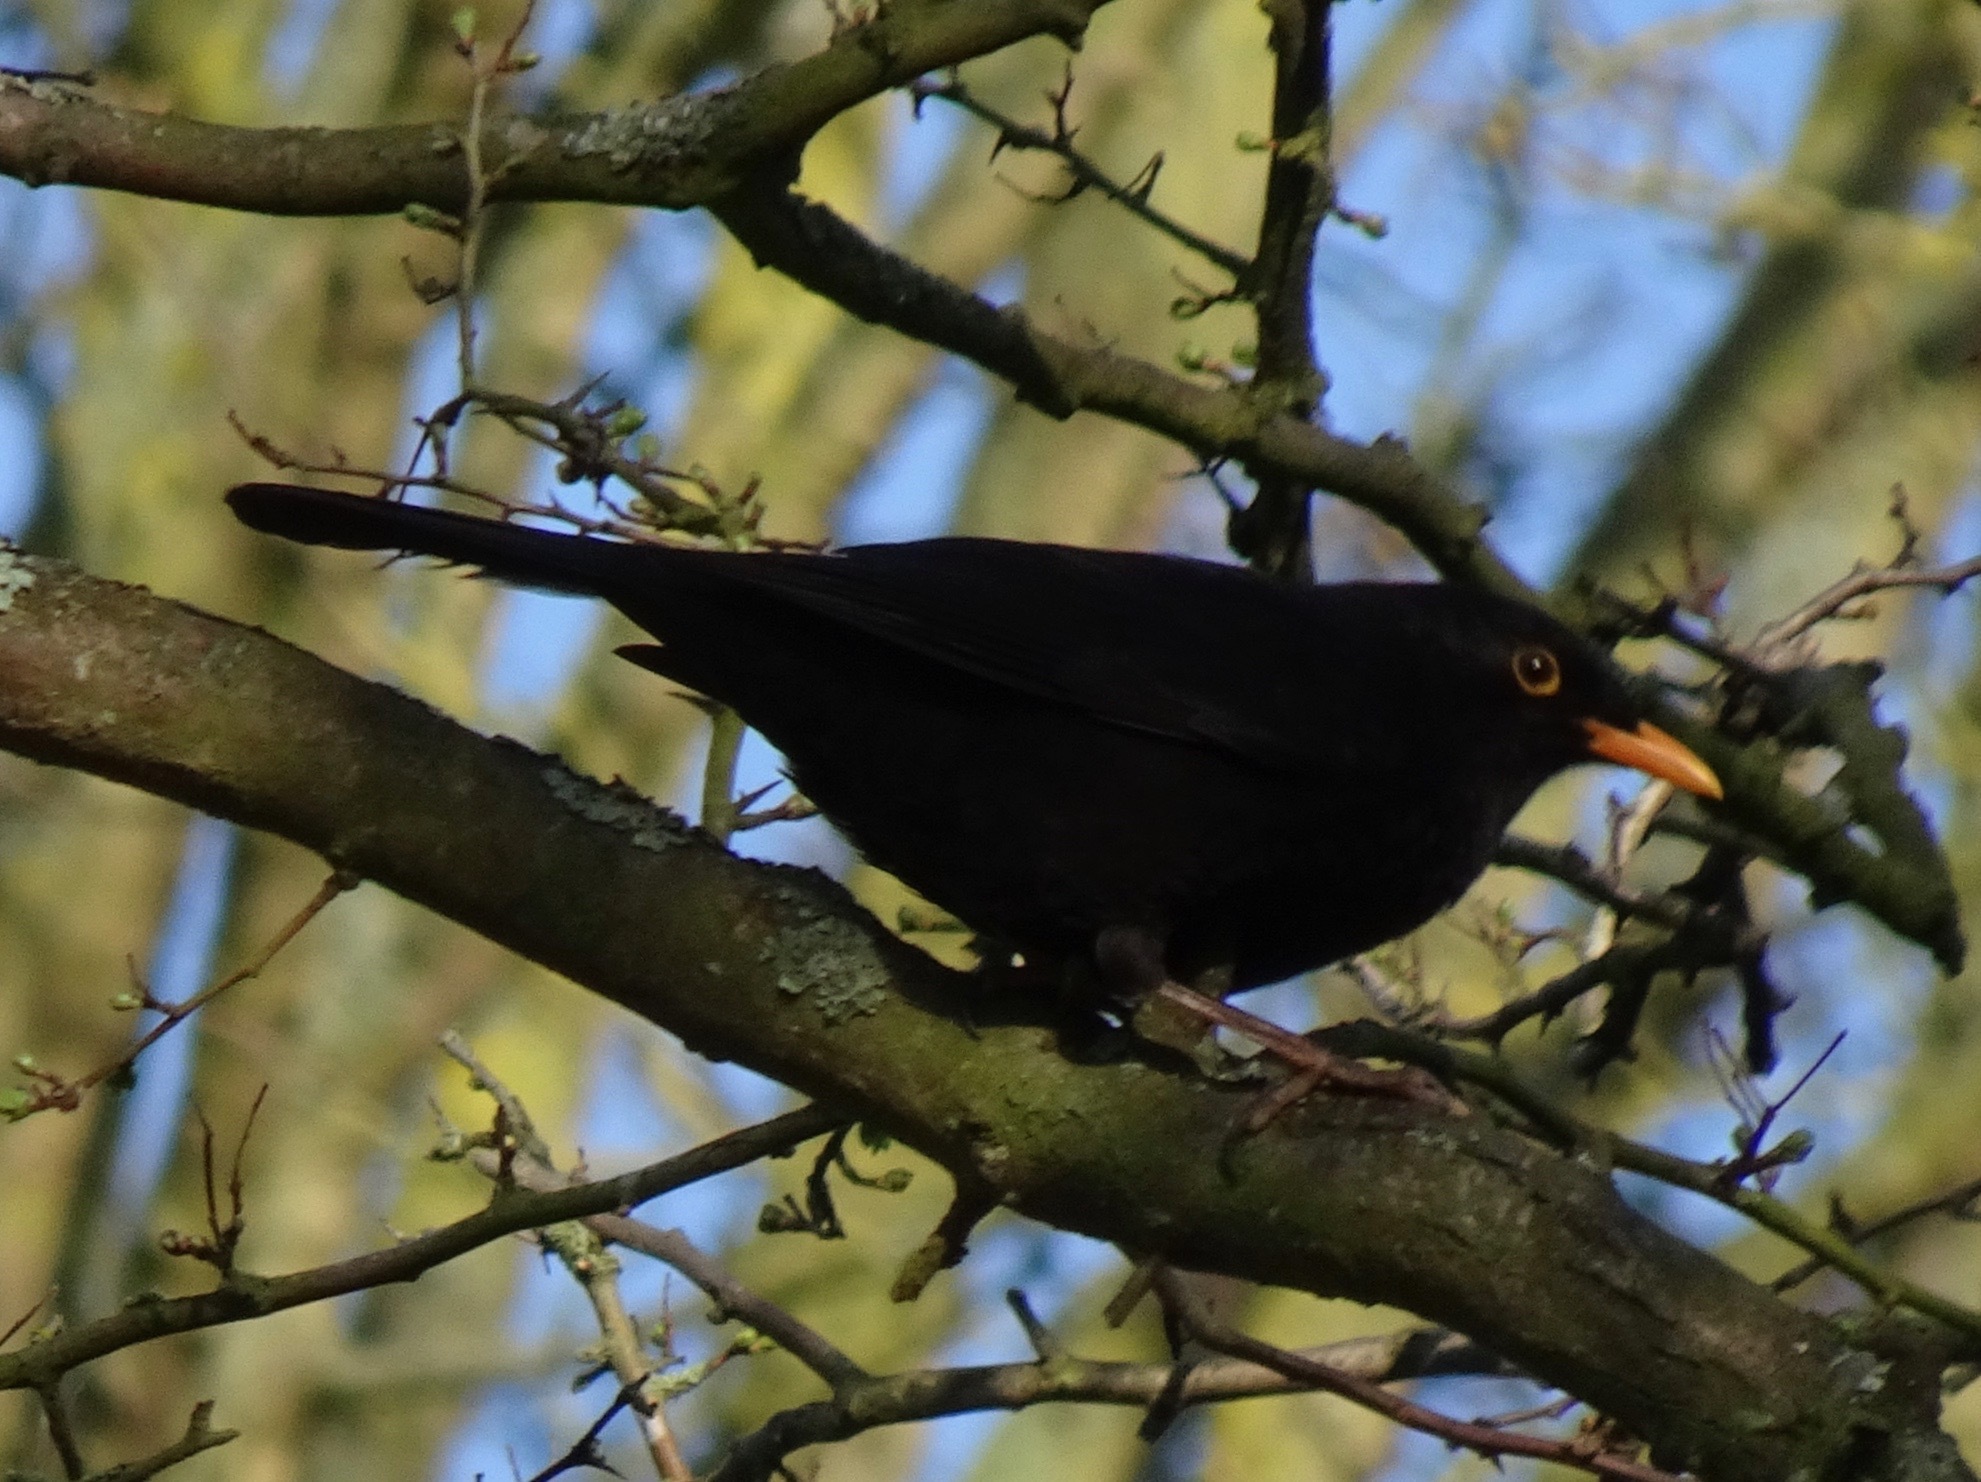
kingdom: Animalia
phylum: Chordata
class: Aves
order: Passeriformes
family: Turdidae
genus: Turdus
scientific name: Turdus merula
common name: Common blackbird
